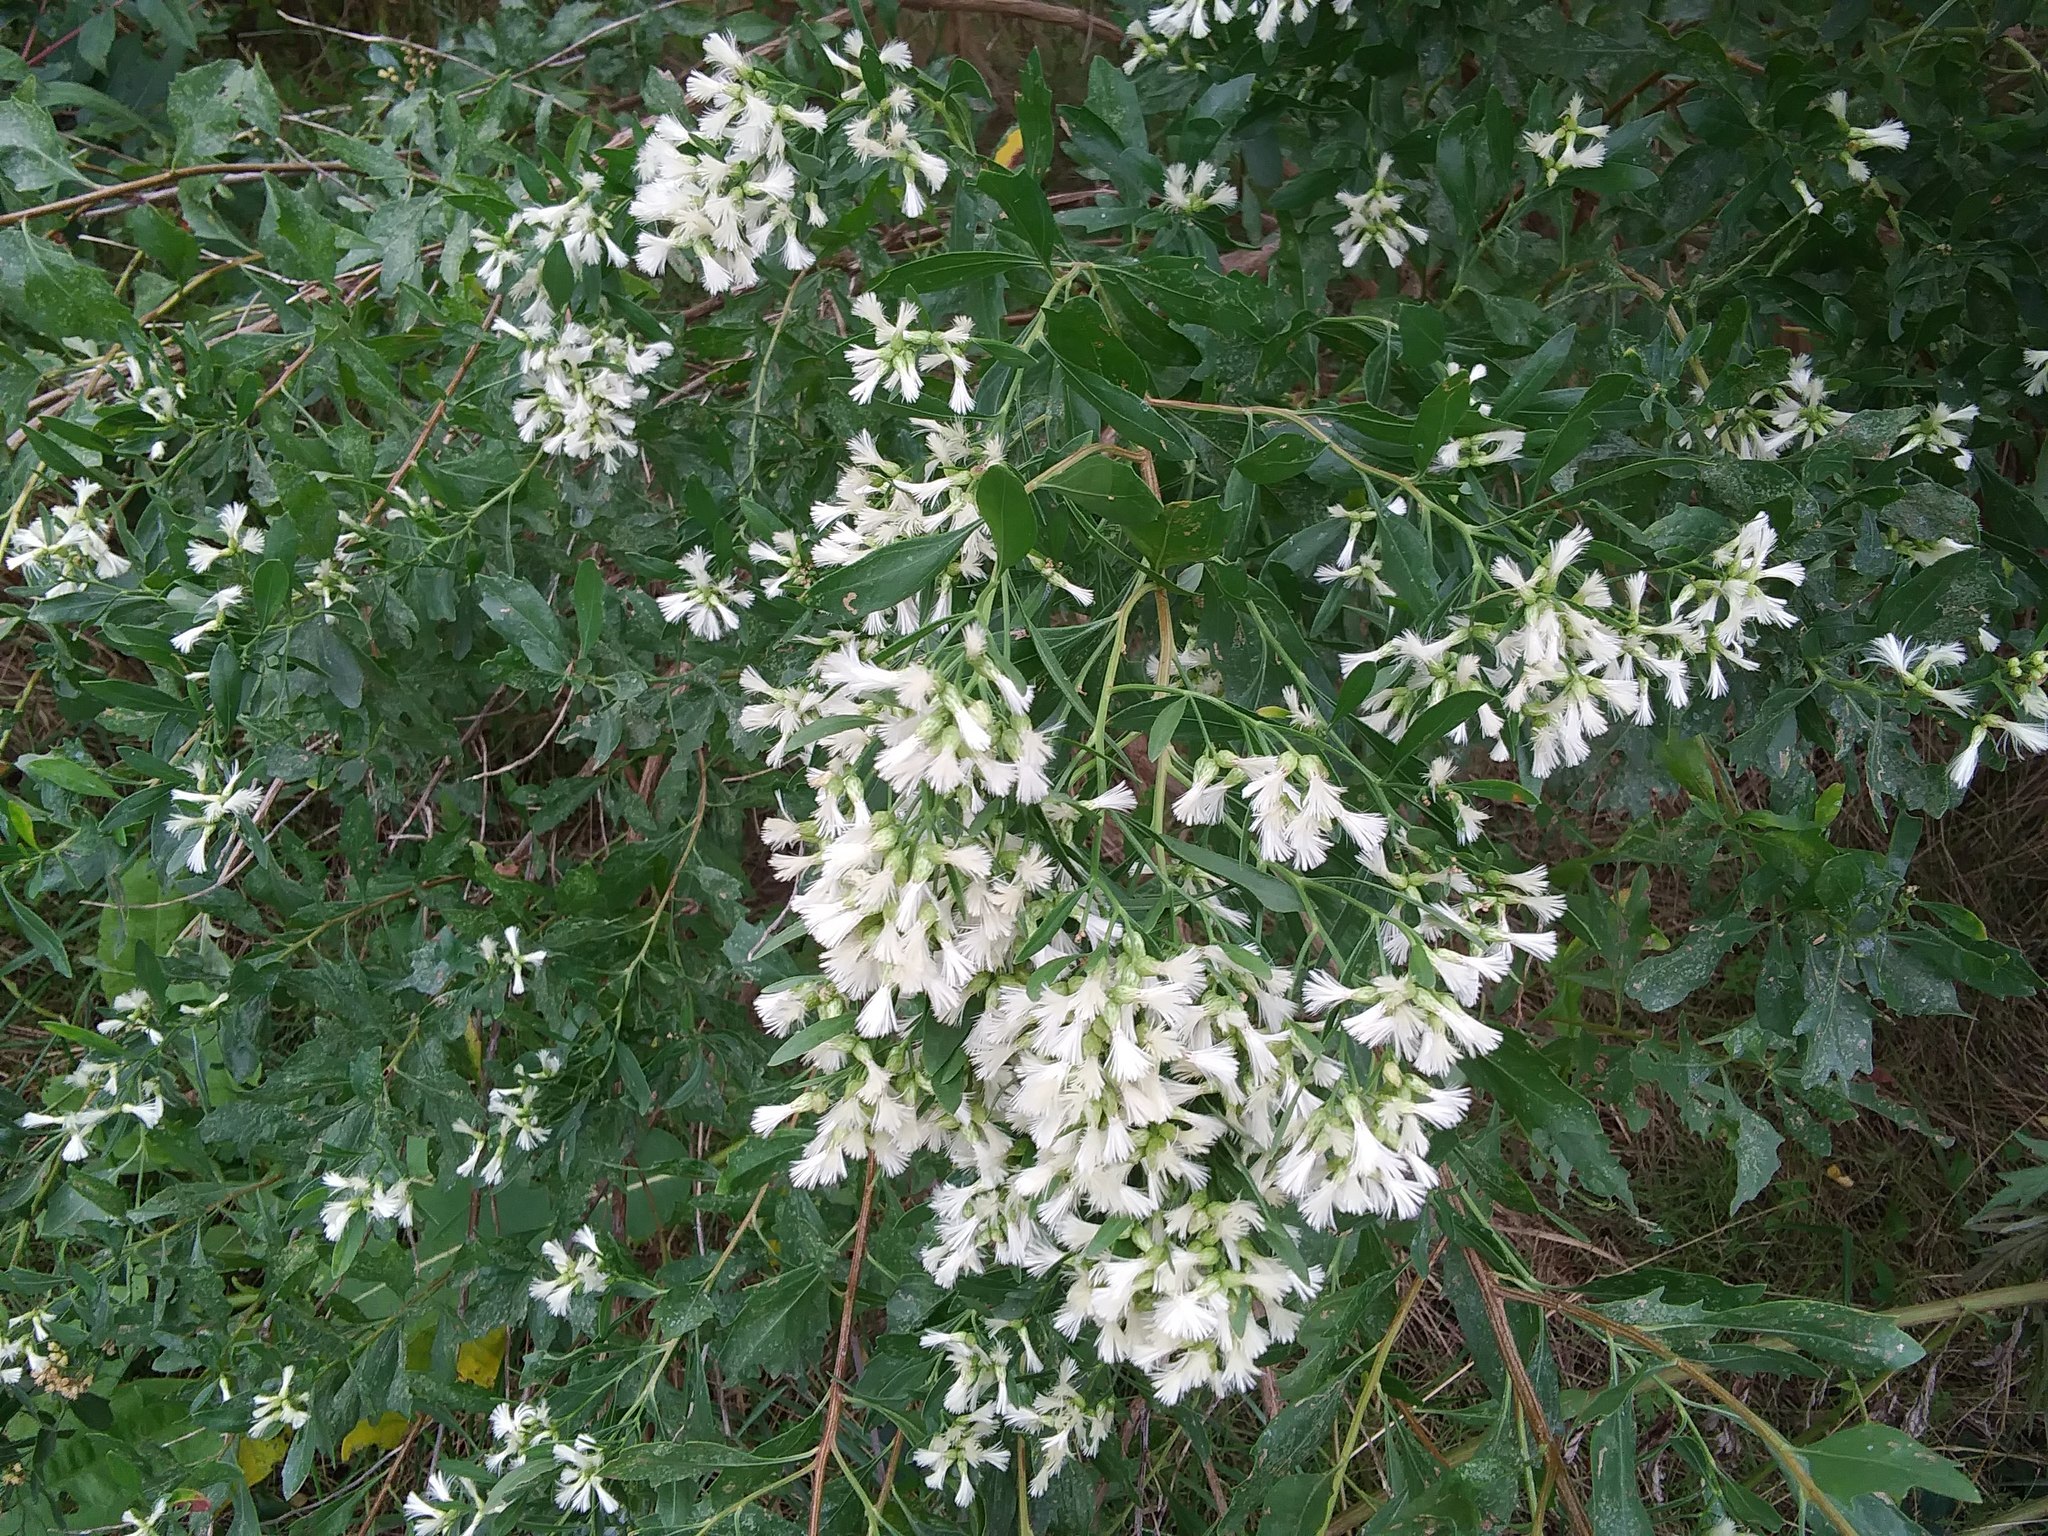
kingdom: Plantae
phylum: Tracheophyta
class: Magnoliopsida
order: Asterales
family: Asteraceae
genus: Baccharis
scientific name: Baccharis halimifolia
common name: Eastern baccharis
